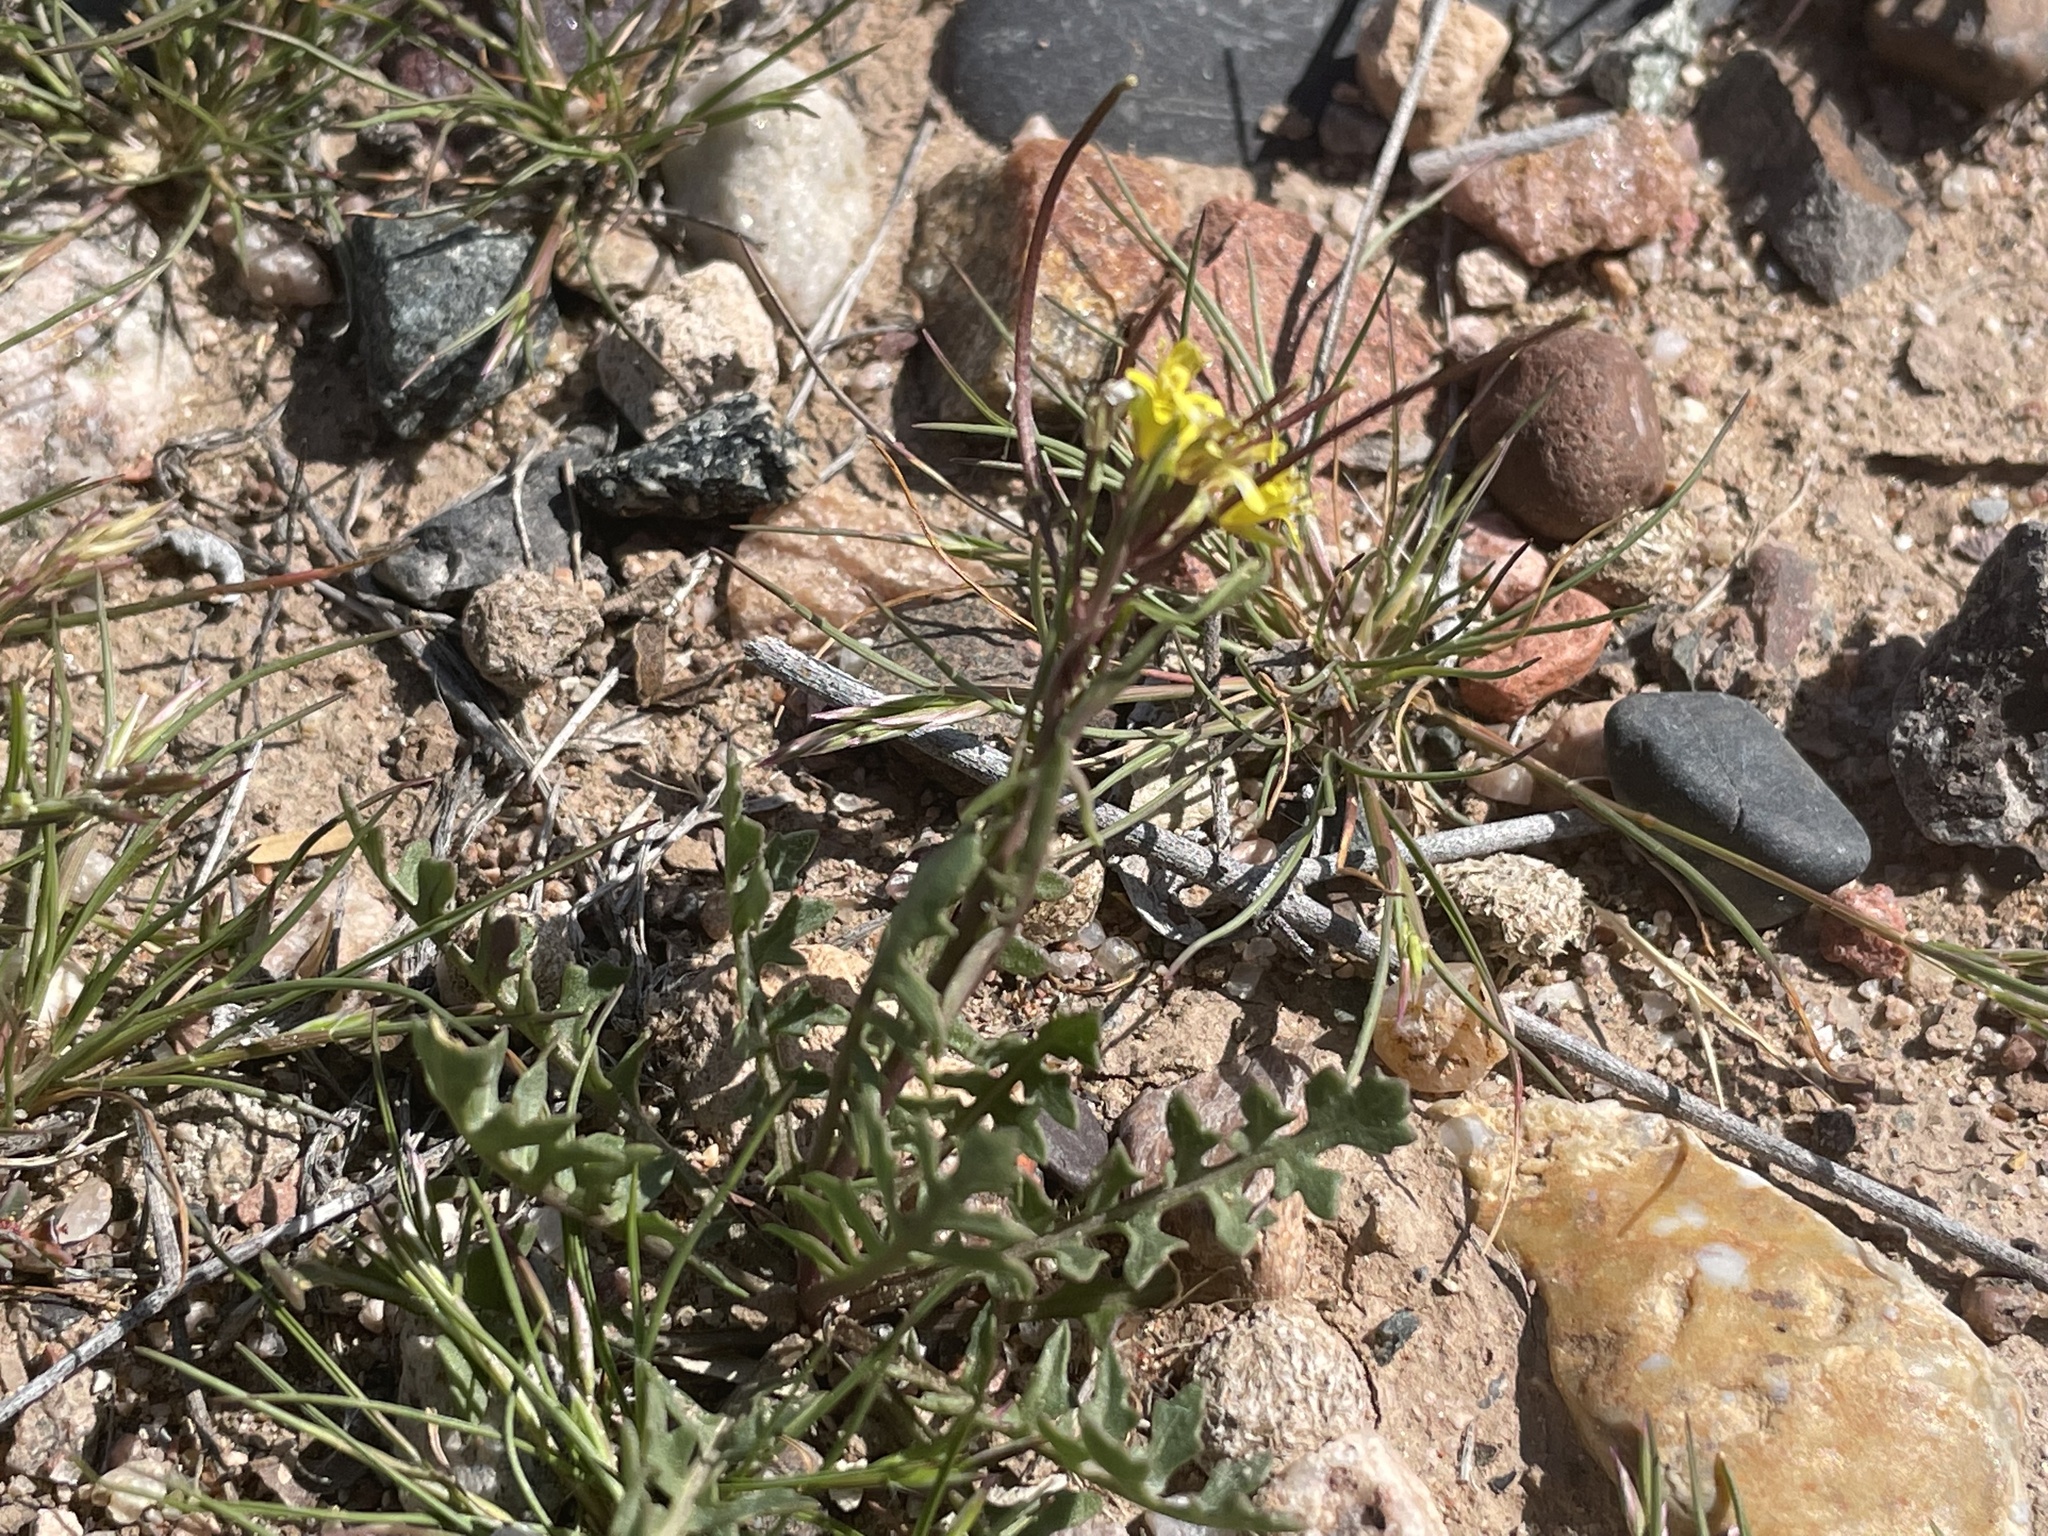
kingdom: Plantae
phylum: Tracheophyta
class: Magnoliopsida
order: Brassicales
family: Brassicaceae
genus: Sisymbrium
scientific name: Sisymbrium irio
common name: London rocket
